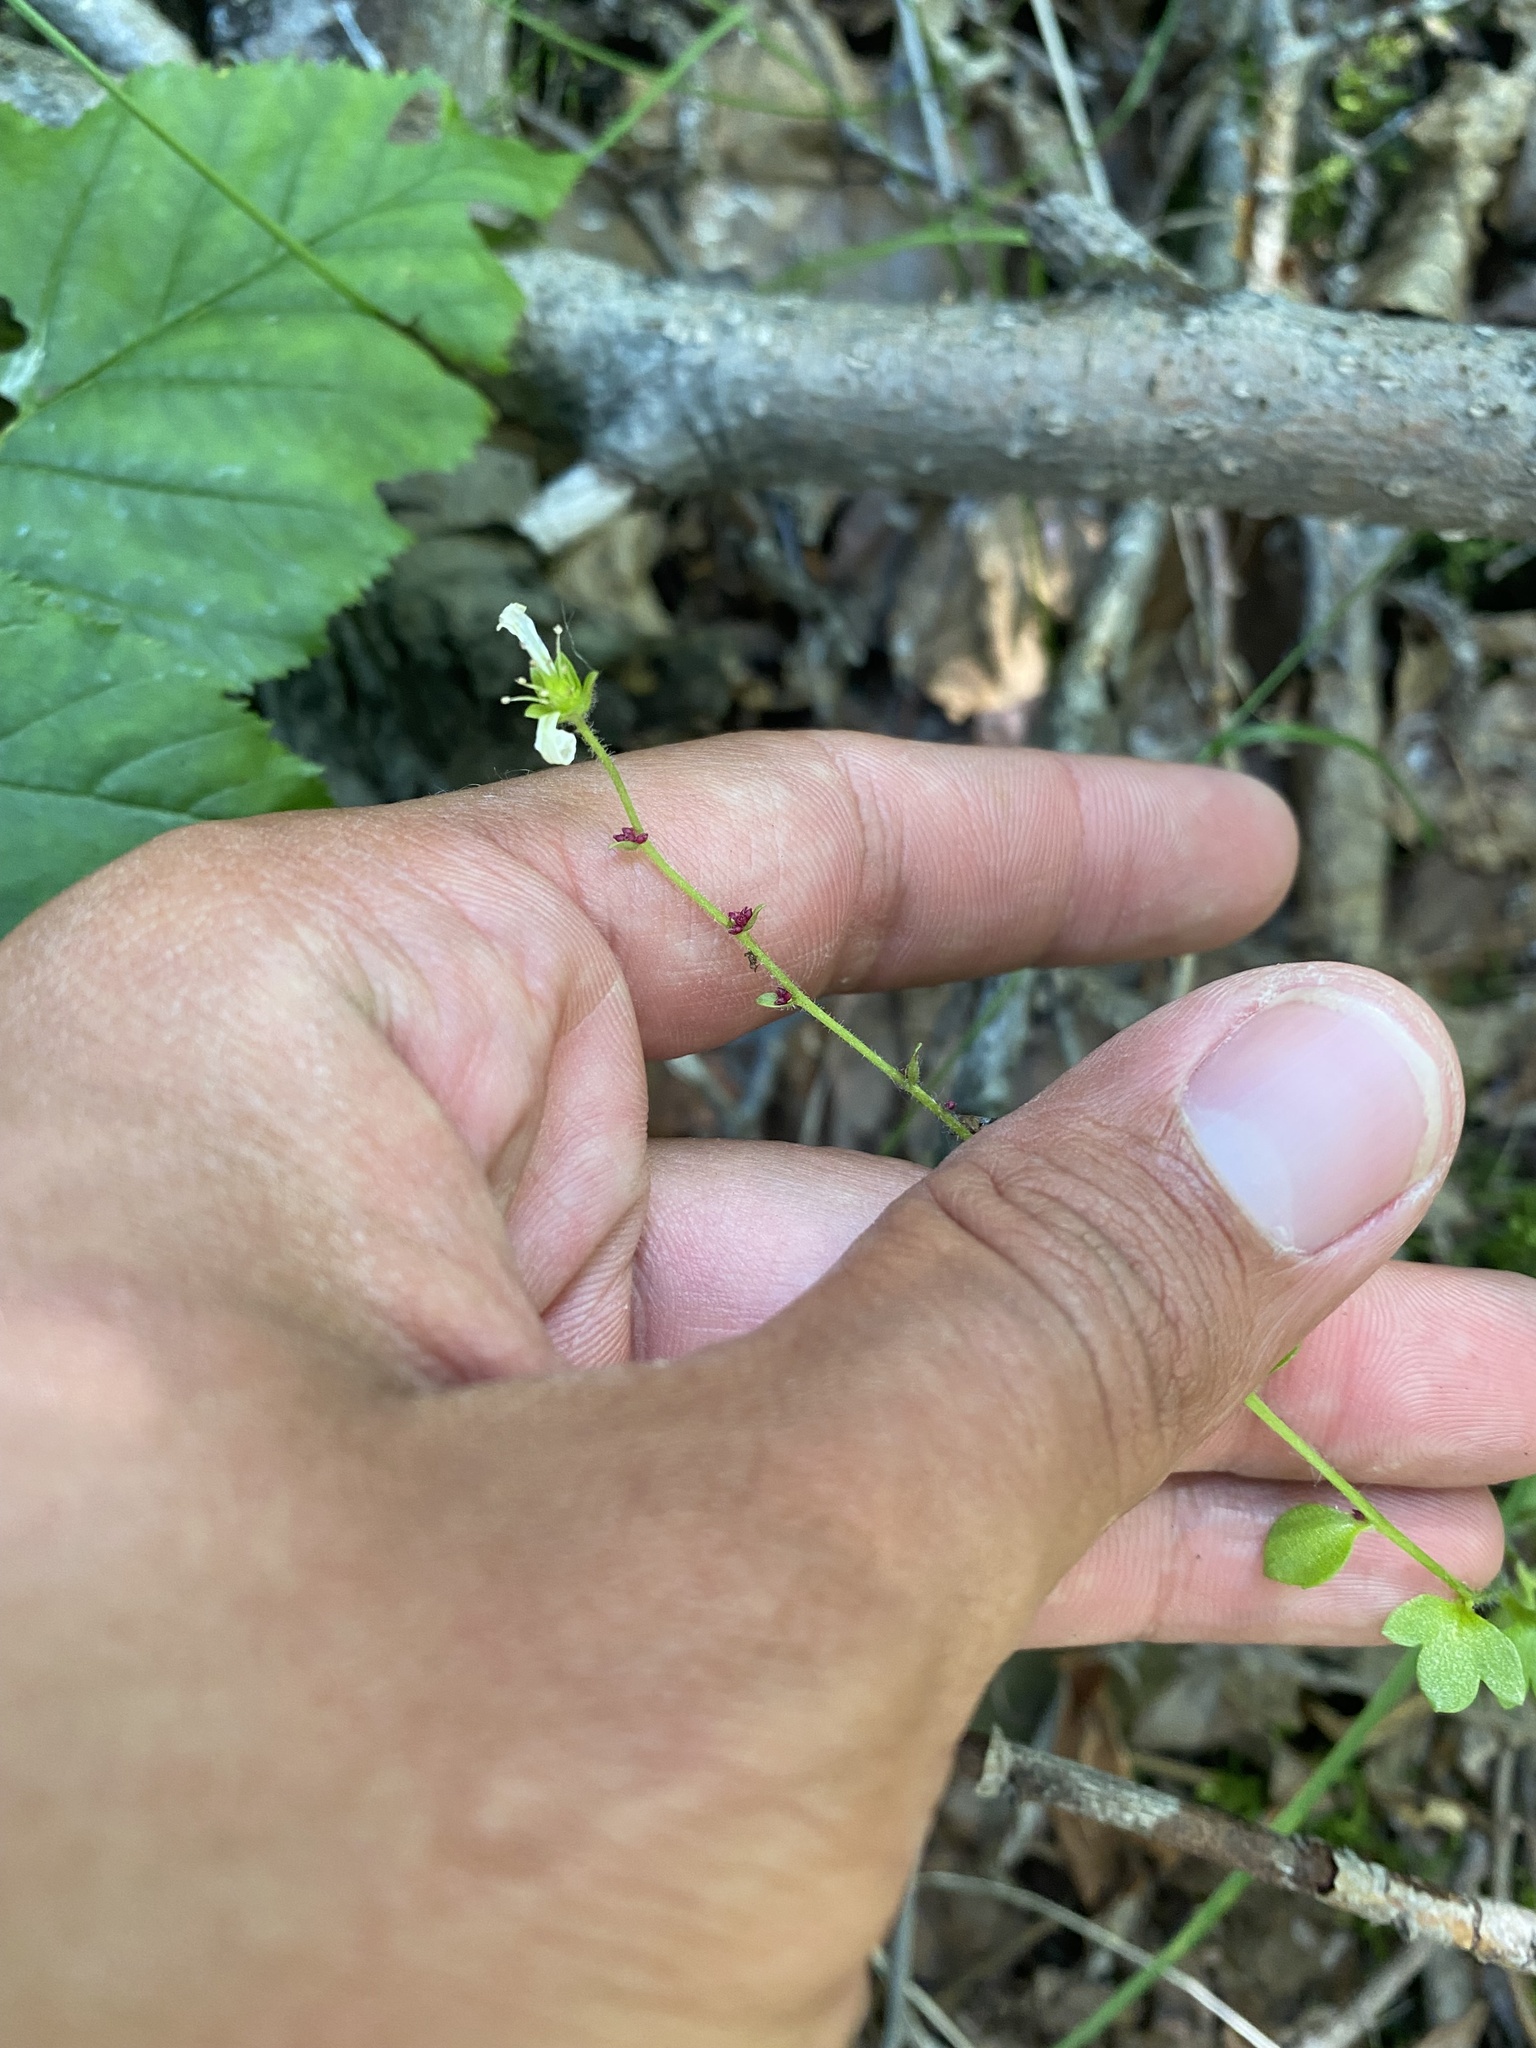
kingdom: Plantae
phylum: Tracheophyta
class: Magnoliopsida
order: Saxifragales
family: Saxifragaceae
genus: Saxifraga
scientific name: Saxifraga cernua
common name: Drooping saxifrage
